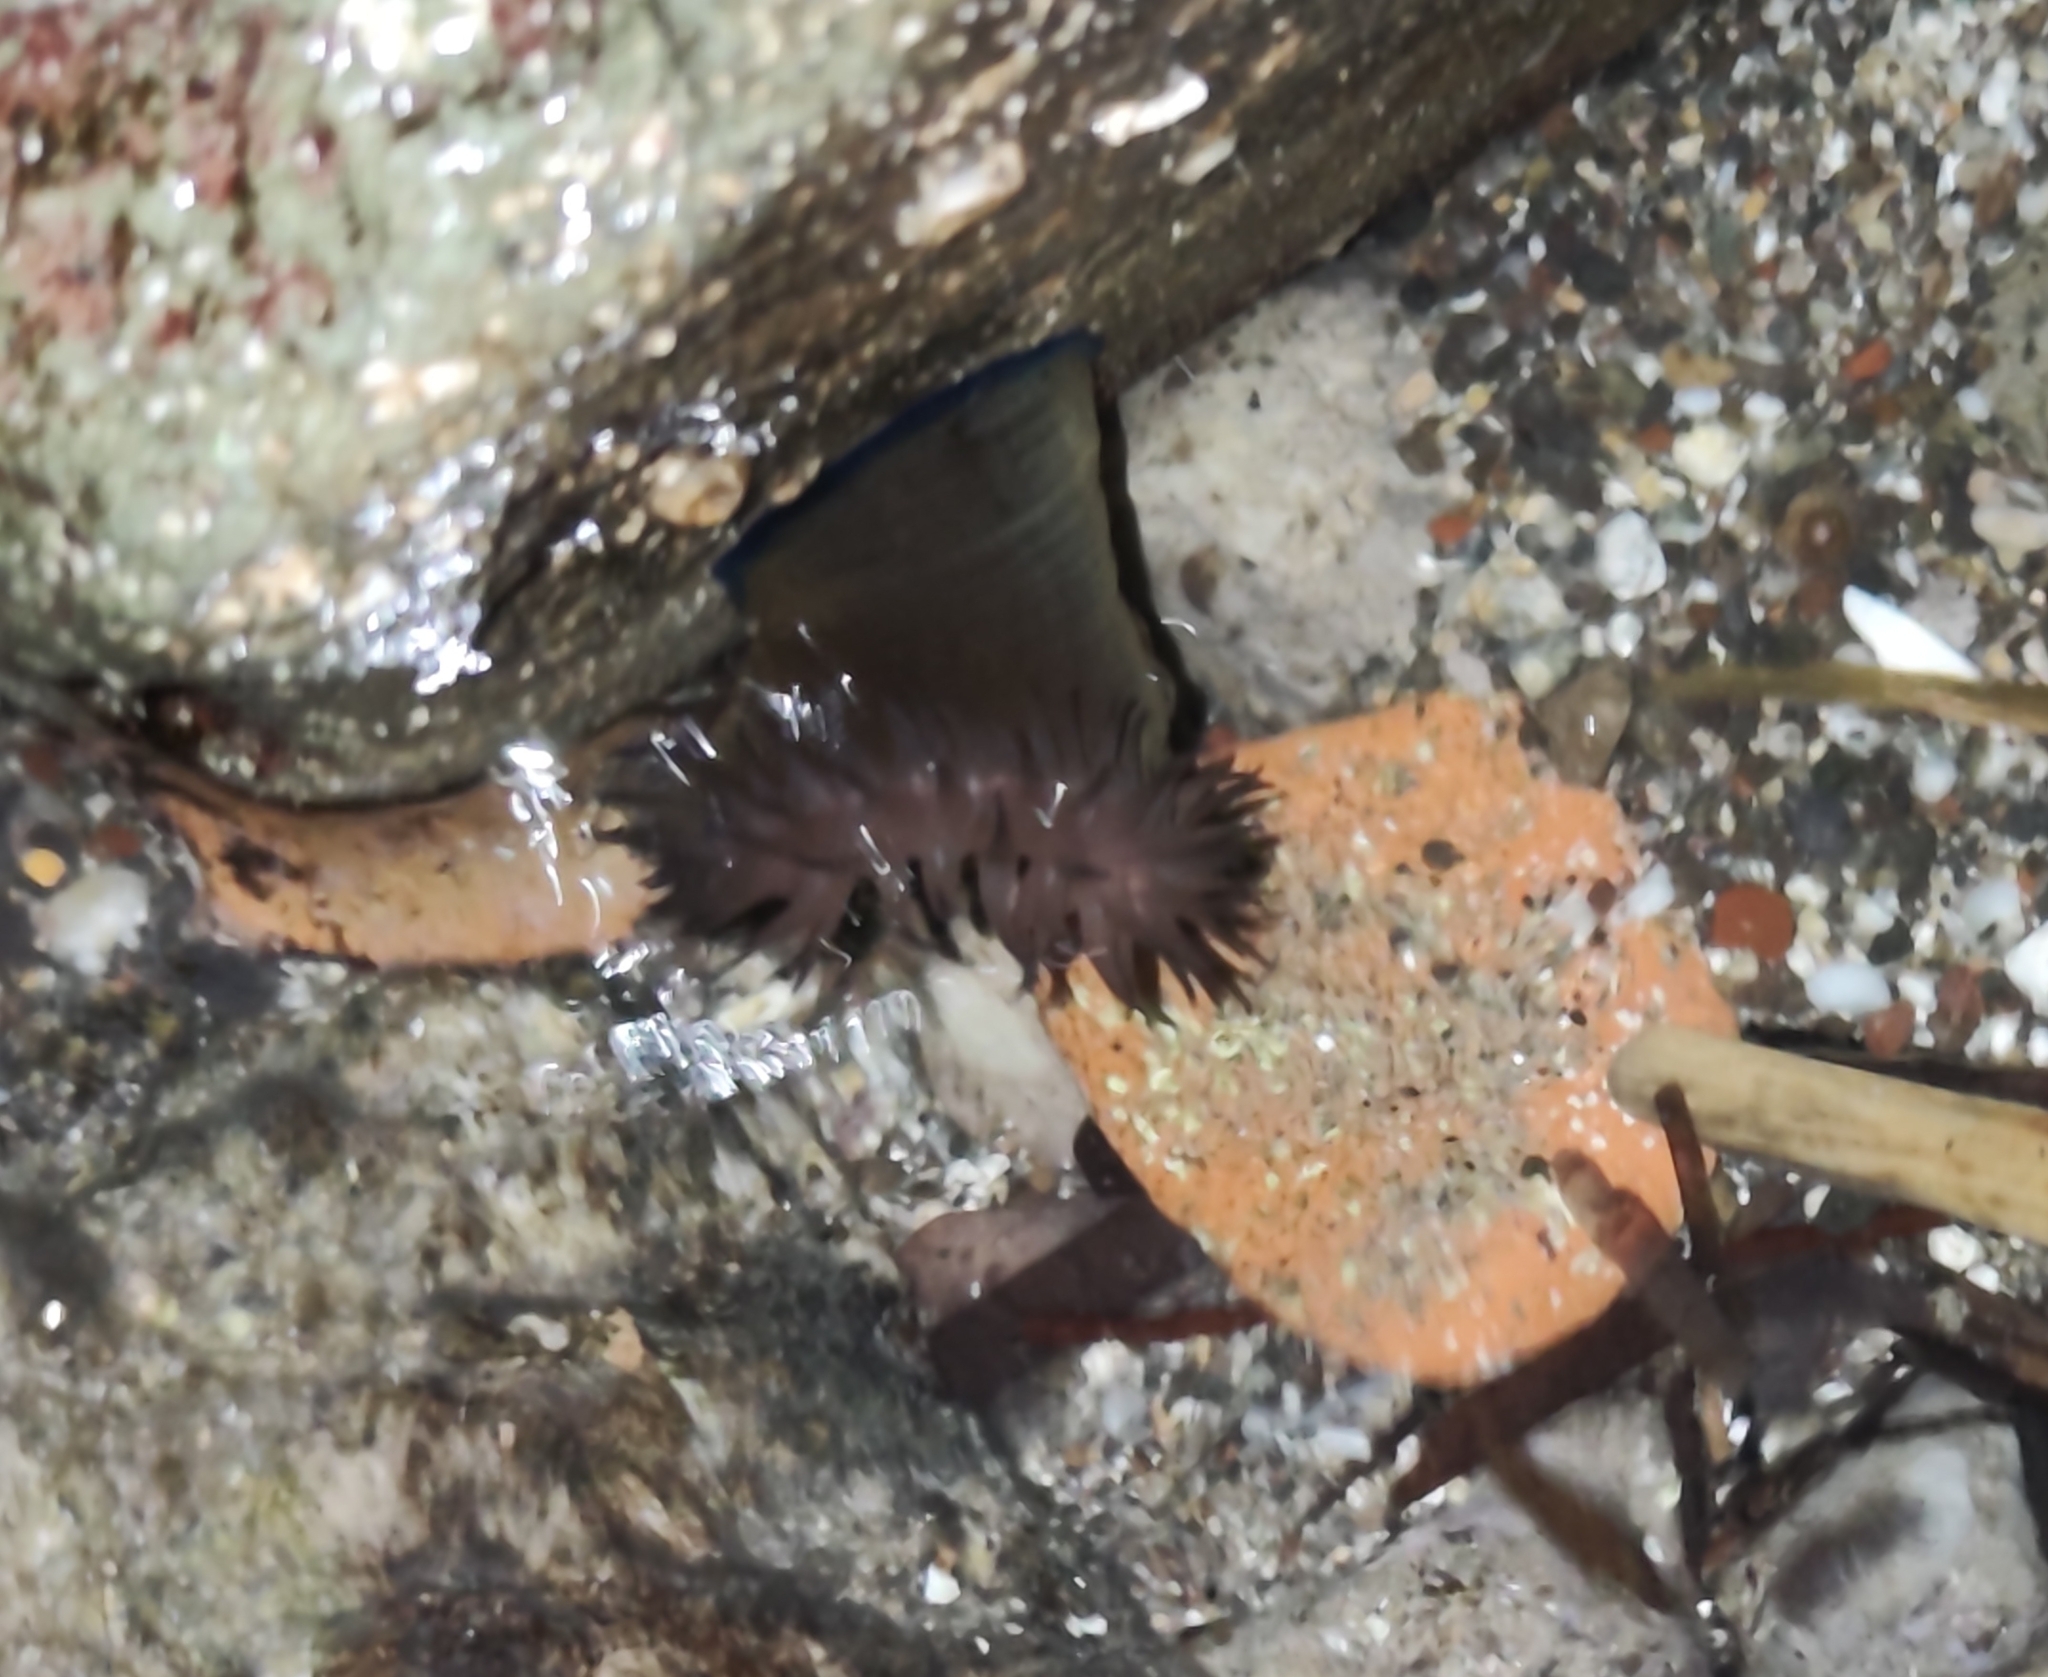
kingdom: Animalia
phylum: Cnidaria
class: Anthozoa
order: Actiniaria
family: Actiniidae
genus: Actinia
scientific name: Actinia mediterranea
